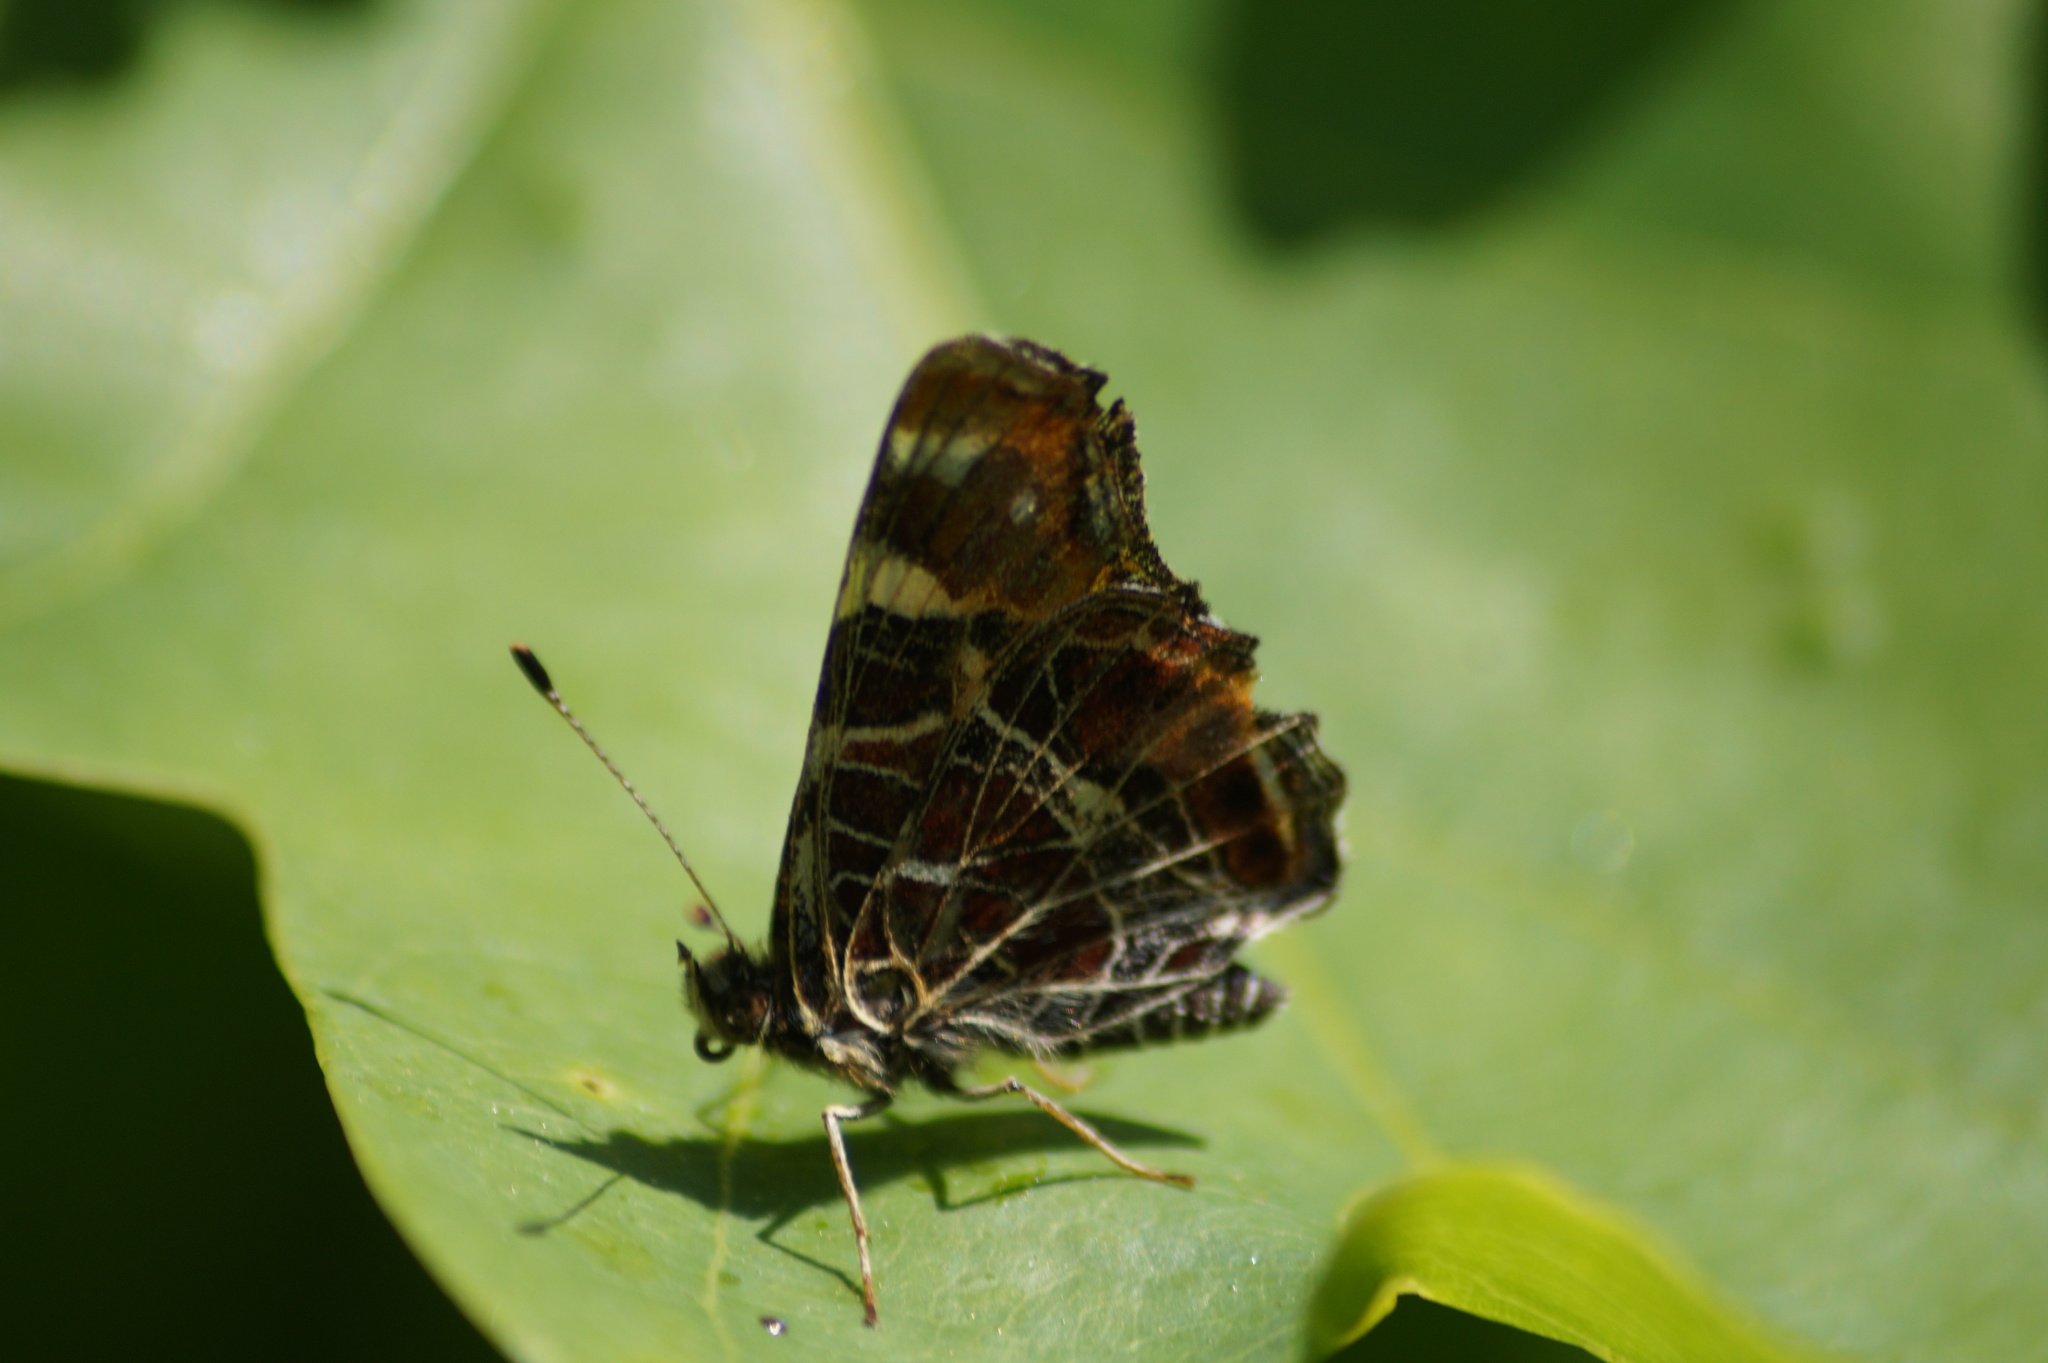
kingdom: Animalia
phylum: Arthropoda
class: Insecta
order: Lepidoptera
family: Nymphalidae
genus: Araschnia
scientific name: Araschnia levana
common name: Map butterfly
